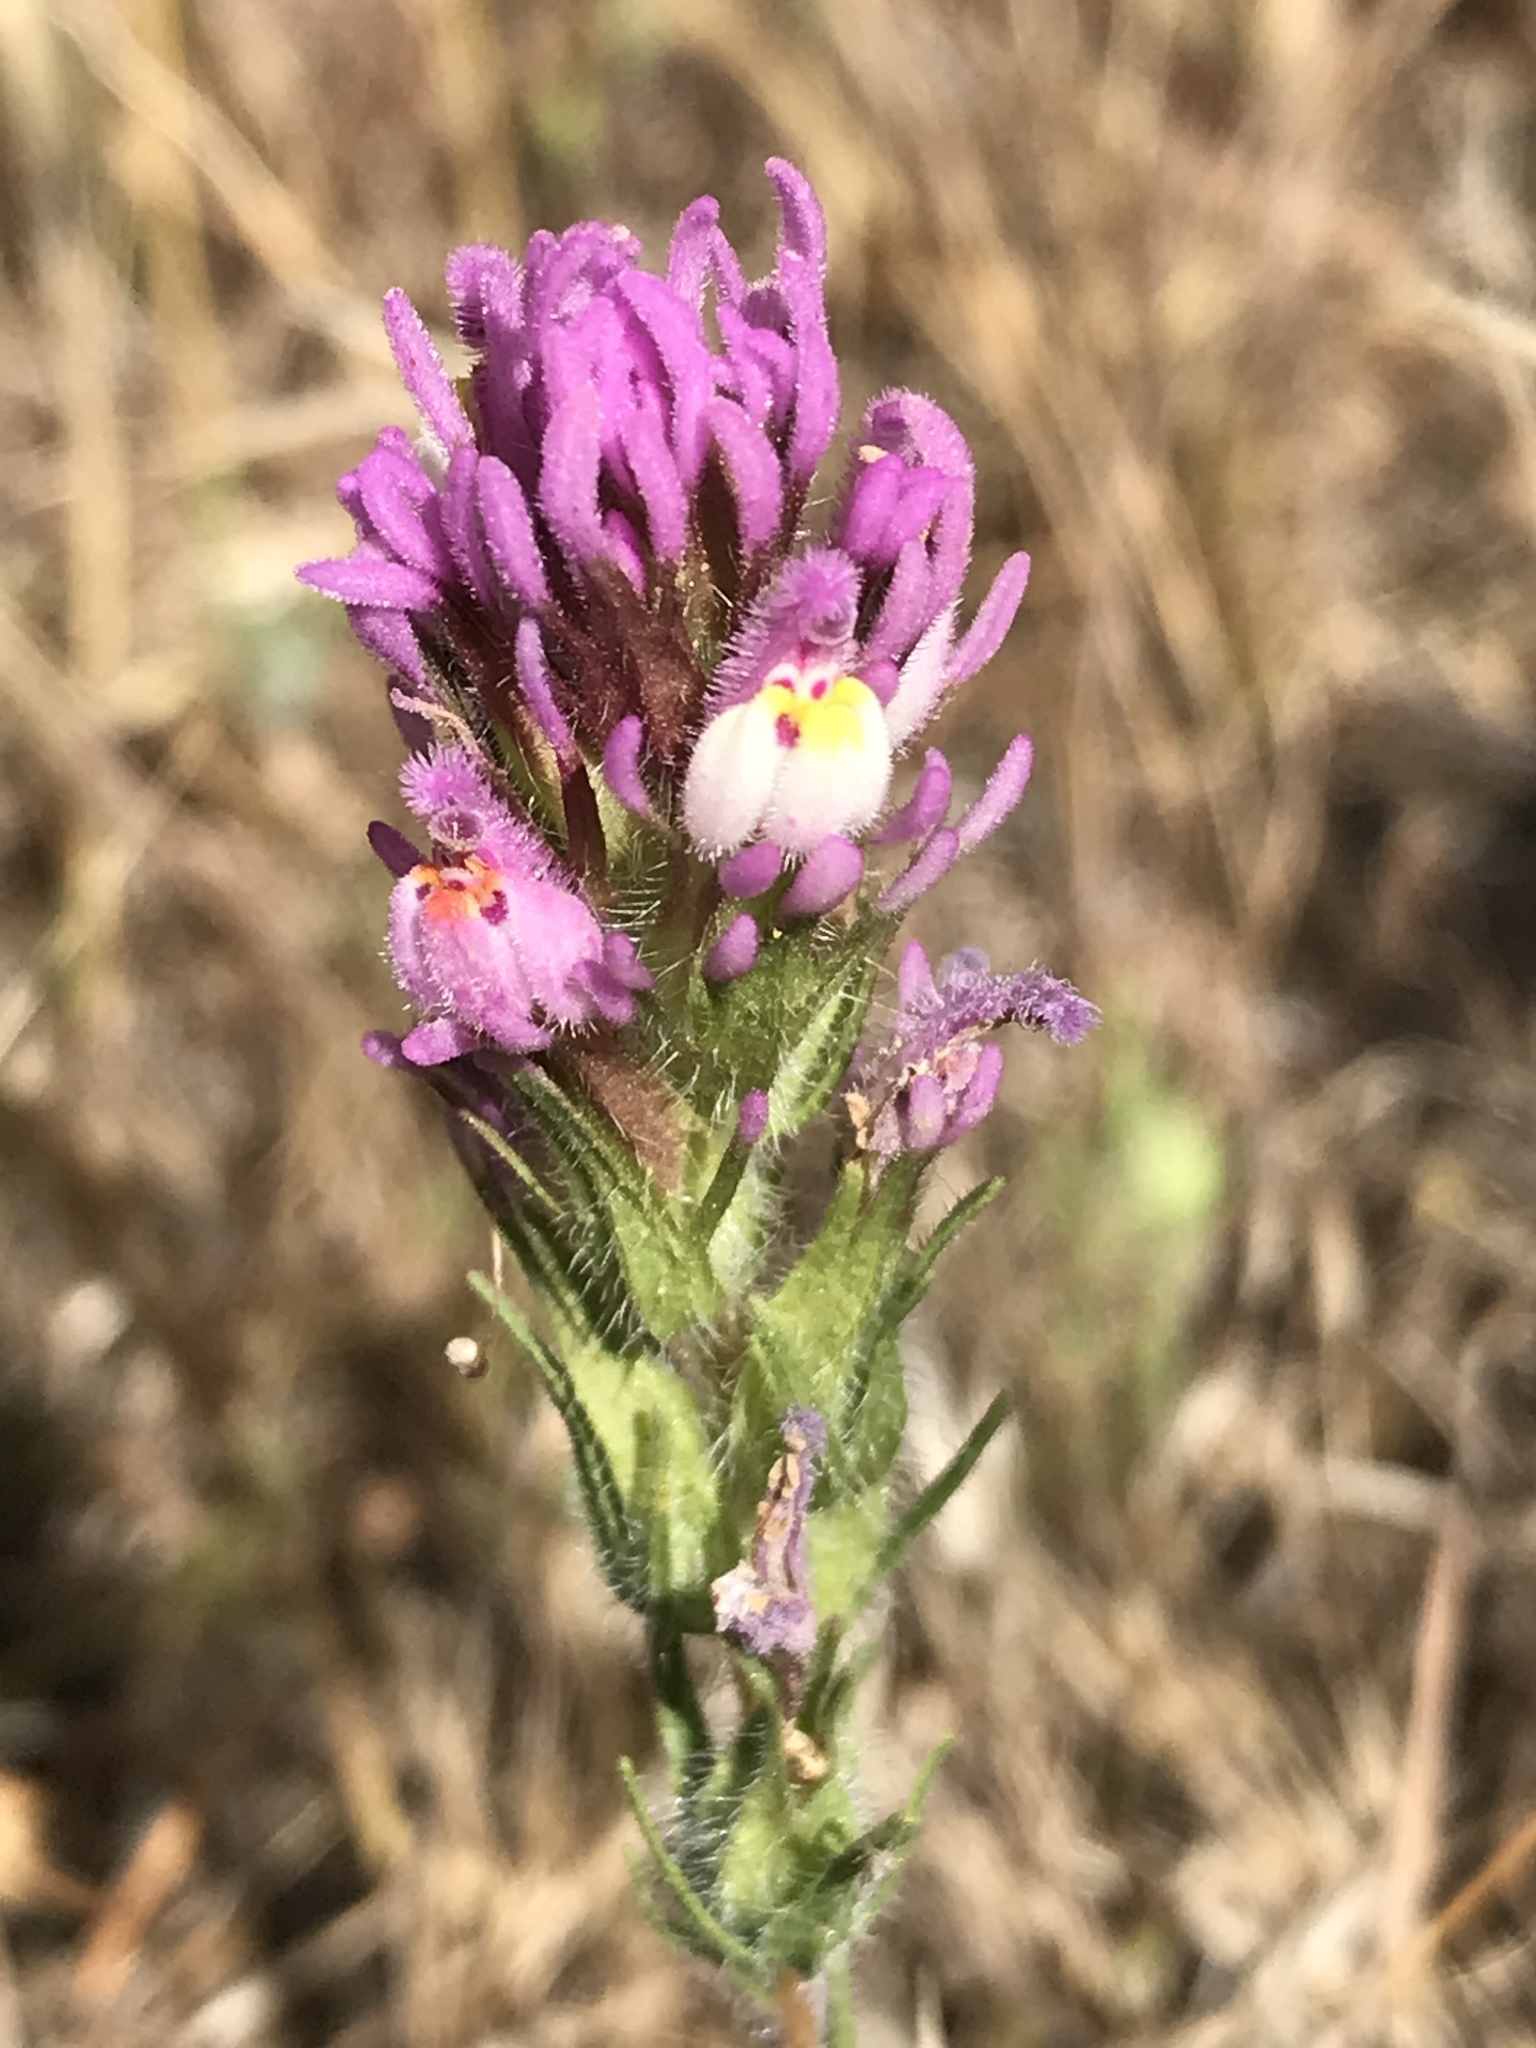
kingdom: Plantae
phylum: Tracheophyta
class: Magnoliopsida
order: Lamiales
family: Orobanchaceae
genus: Castilleja
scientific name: Castilleja exserta
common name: Purple owl-clover
